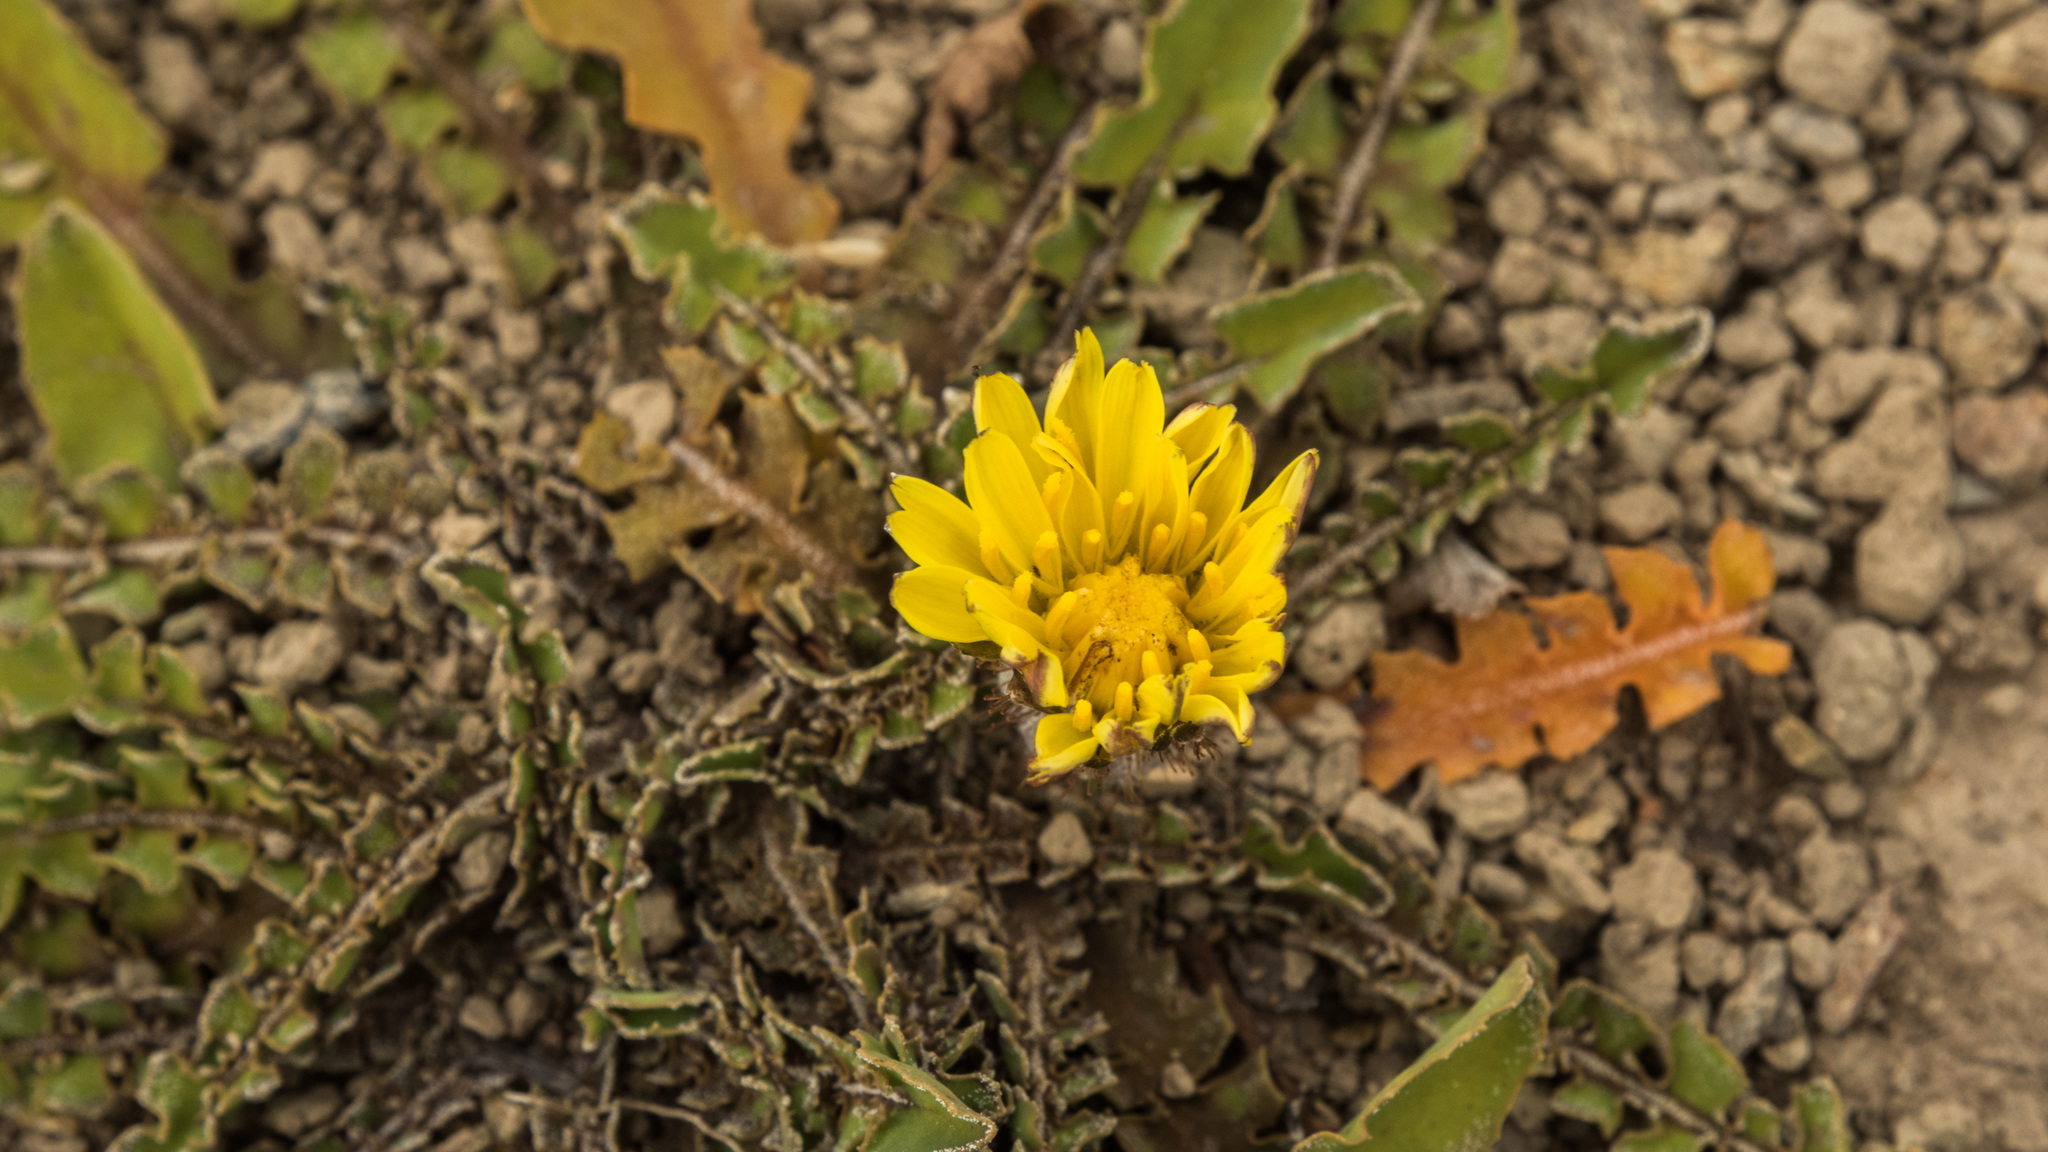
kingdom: Plantae
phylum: Tracheophyta
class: Magnoliopsida
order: Asterales
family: Asteraceae
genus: Sonchus
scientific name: Sonchus novae-zelandiae
